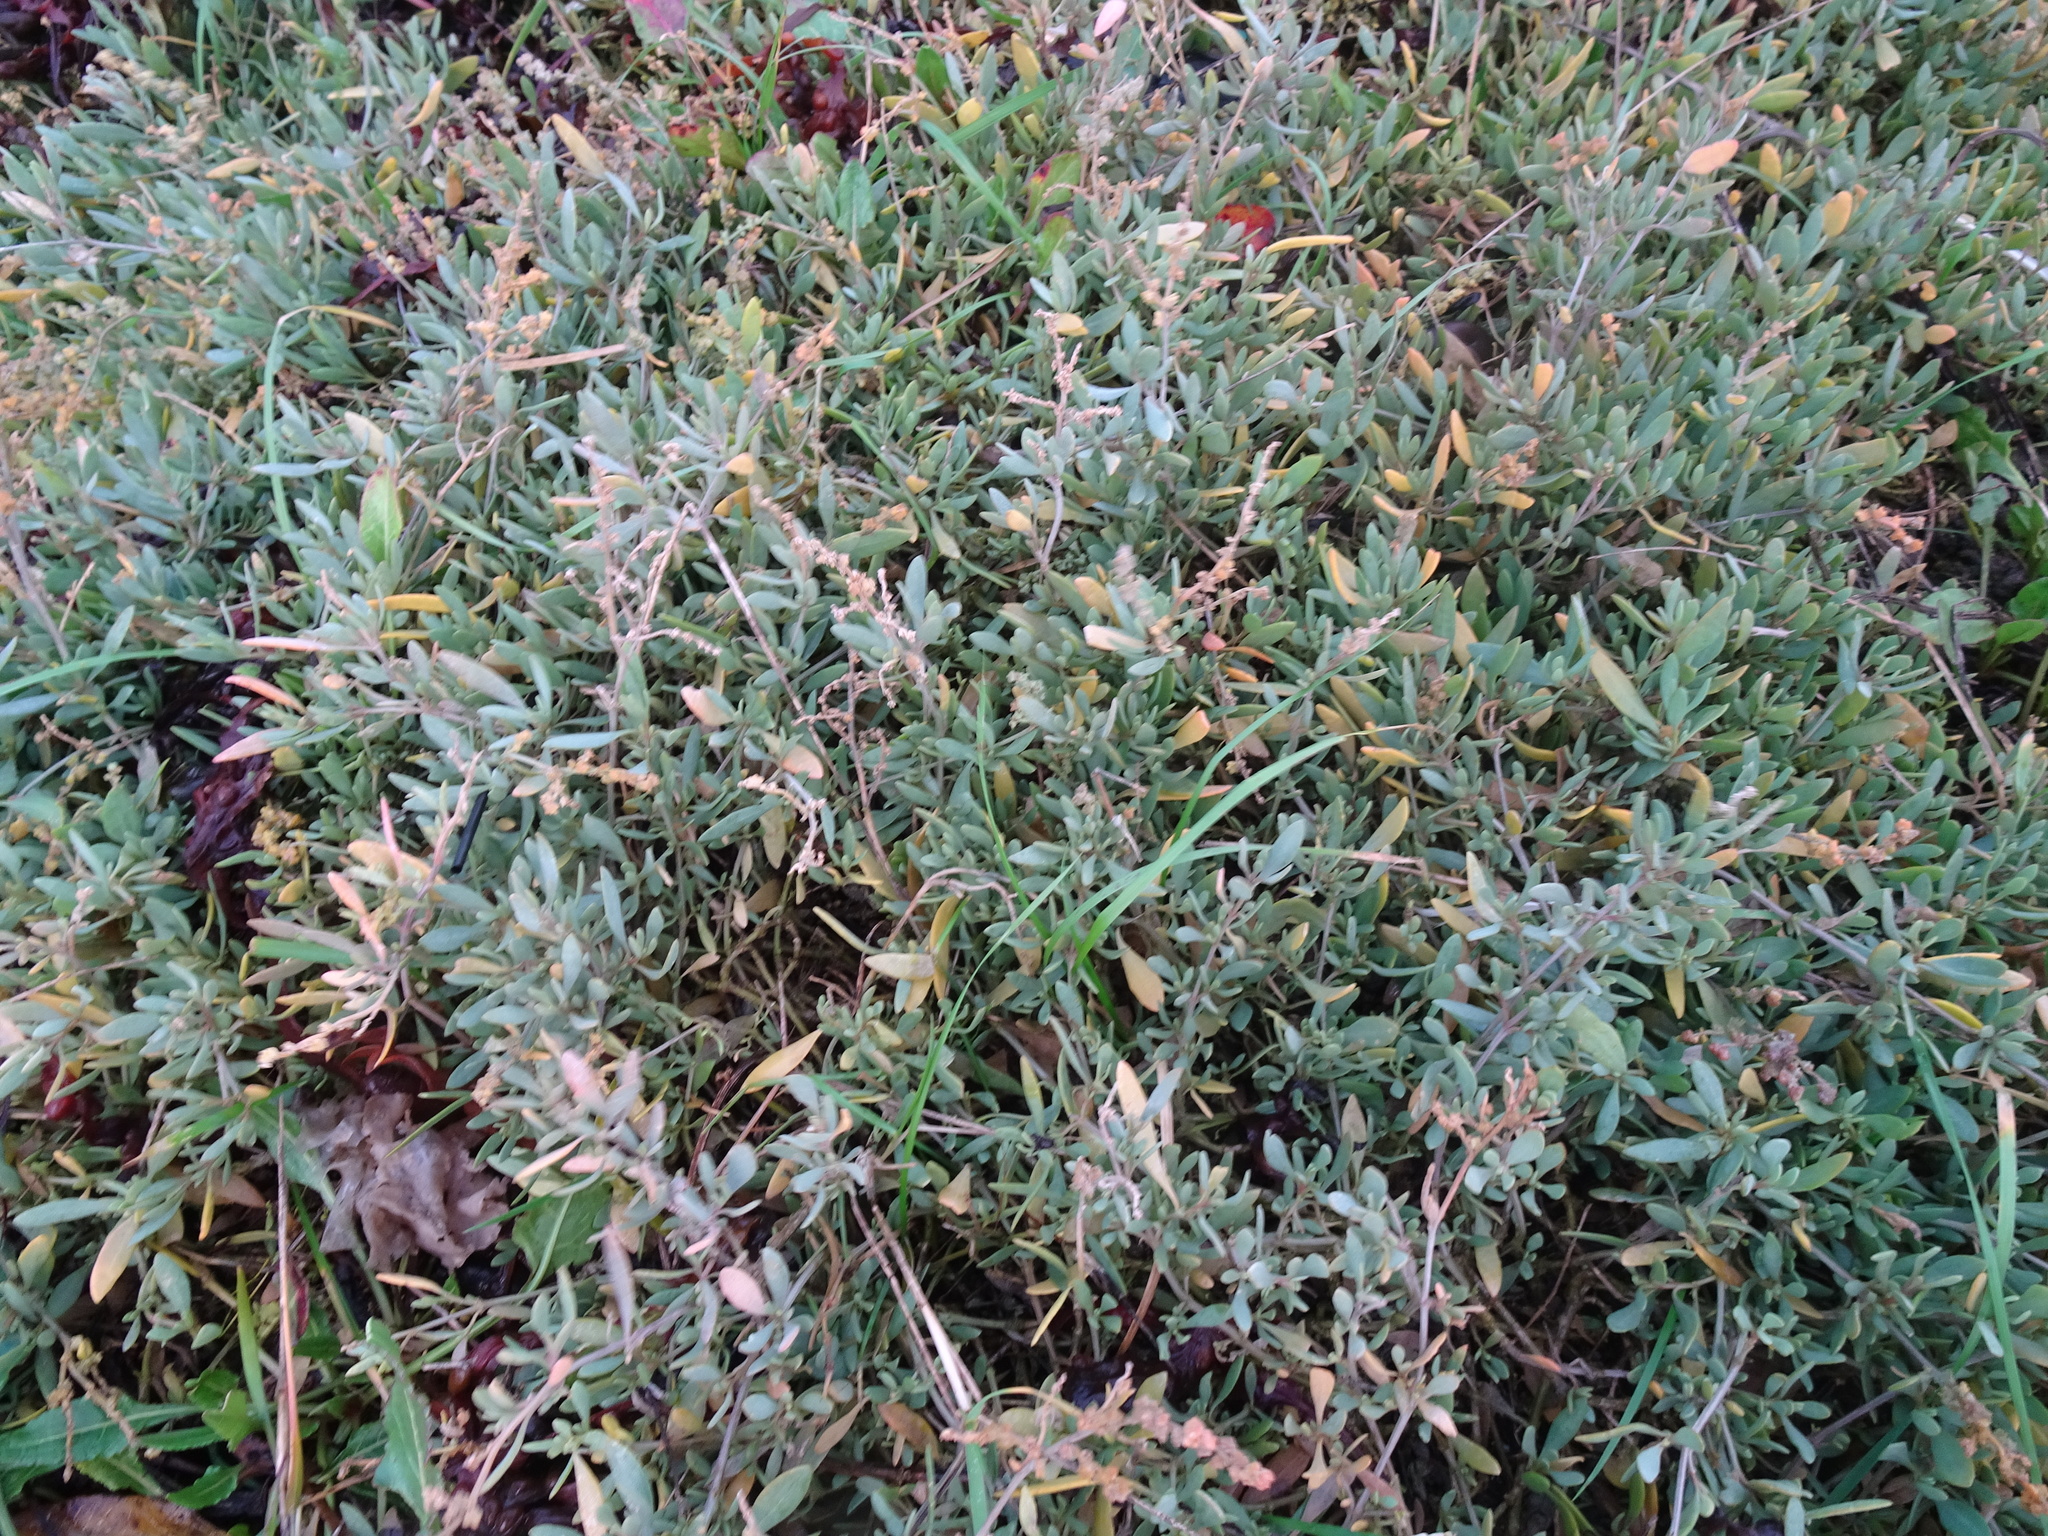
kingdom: Plantae
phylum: Tracheophyta
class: Magnoliopsida
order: Caryophyllales
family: Amaranthaceae
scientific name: Amaranthaceae
